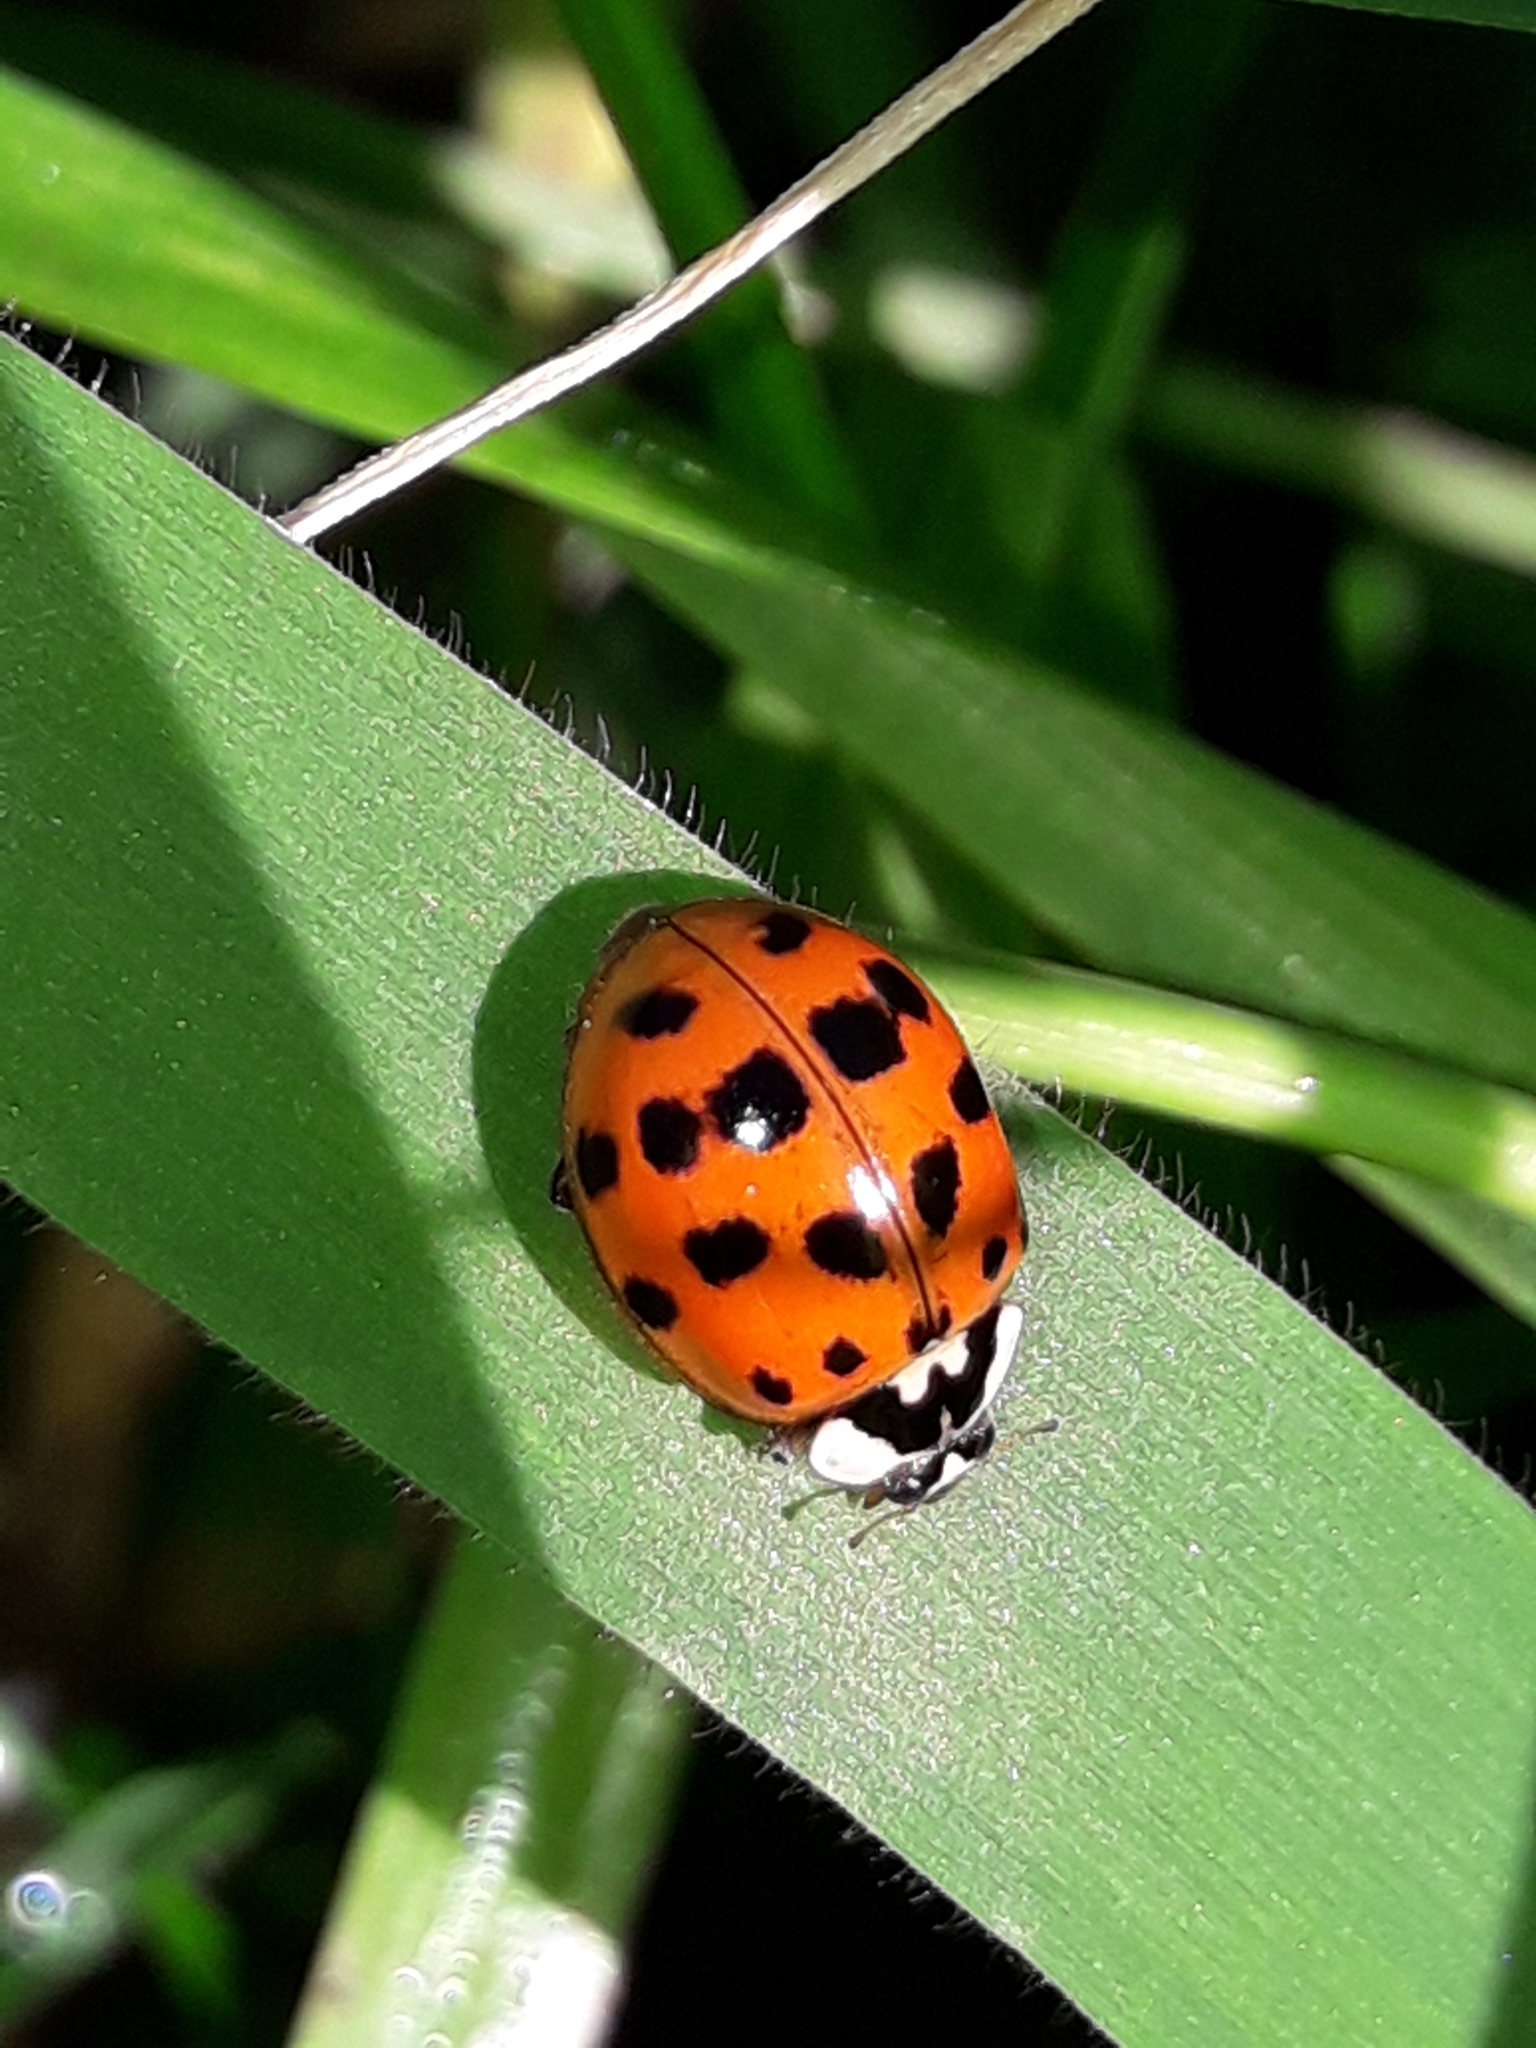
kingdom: Animalia
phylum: Arthropoda
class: Insecta
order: Coleoptera
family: Coccinellidae
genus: Harmonia
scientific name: Harmonia axyridis
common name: Harlequin ladybird
